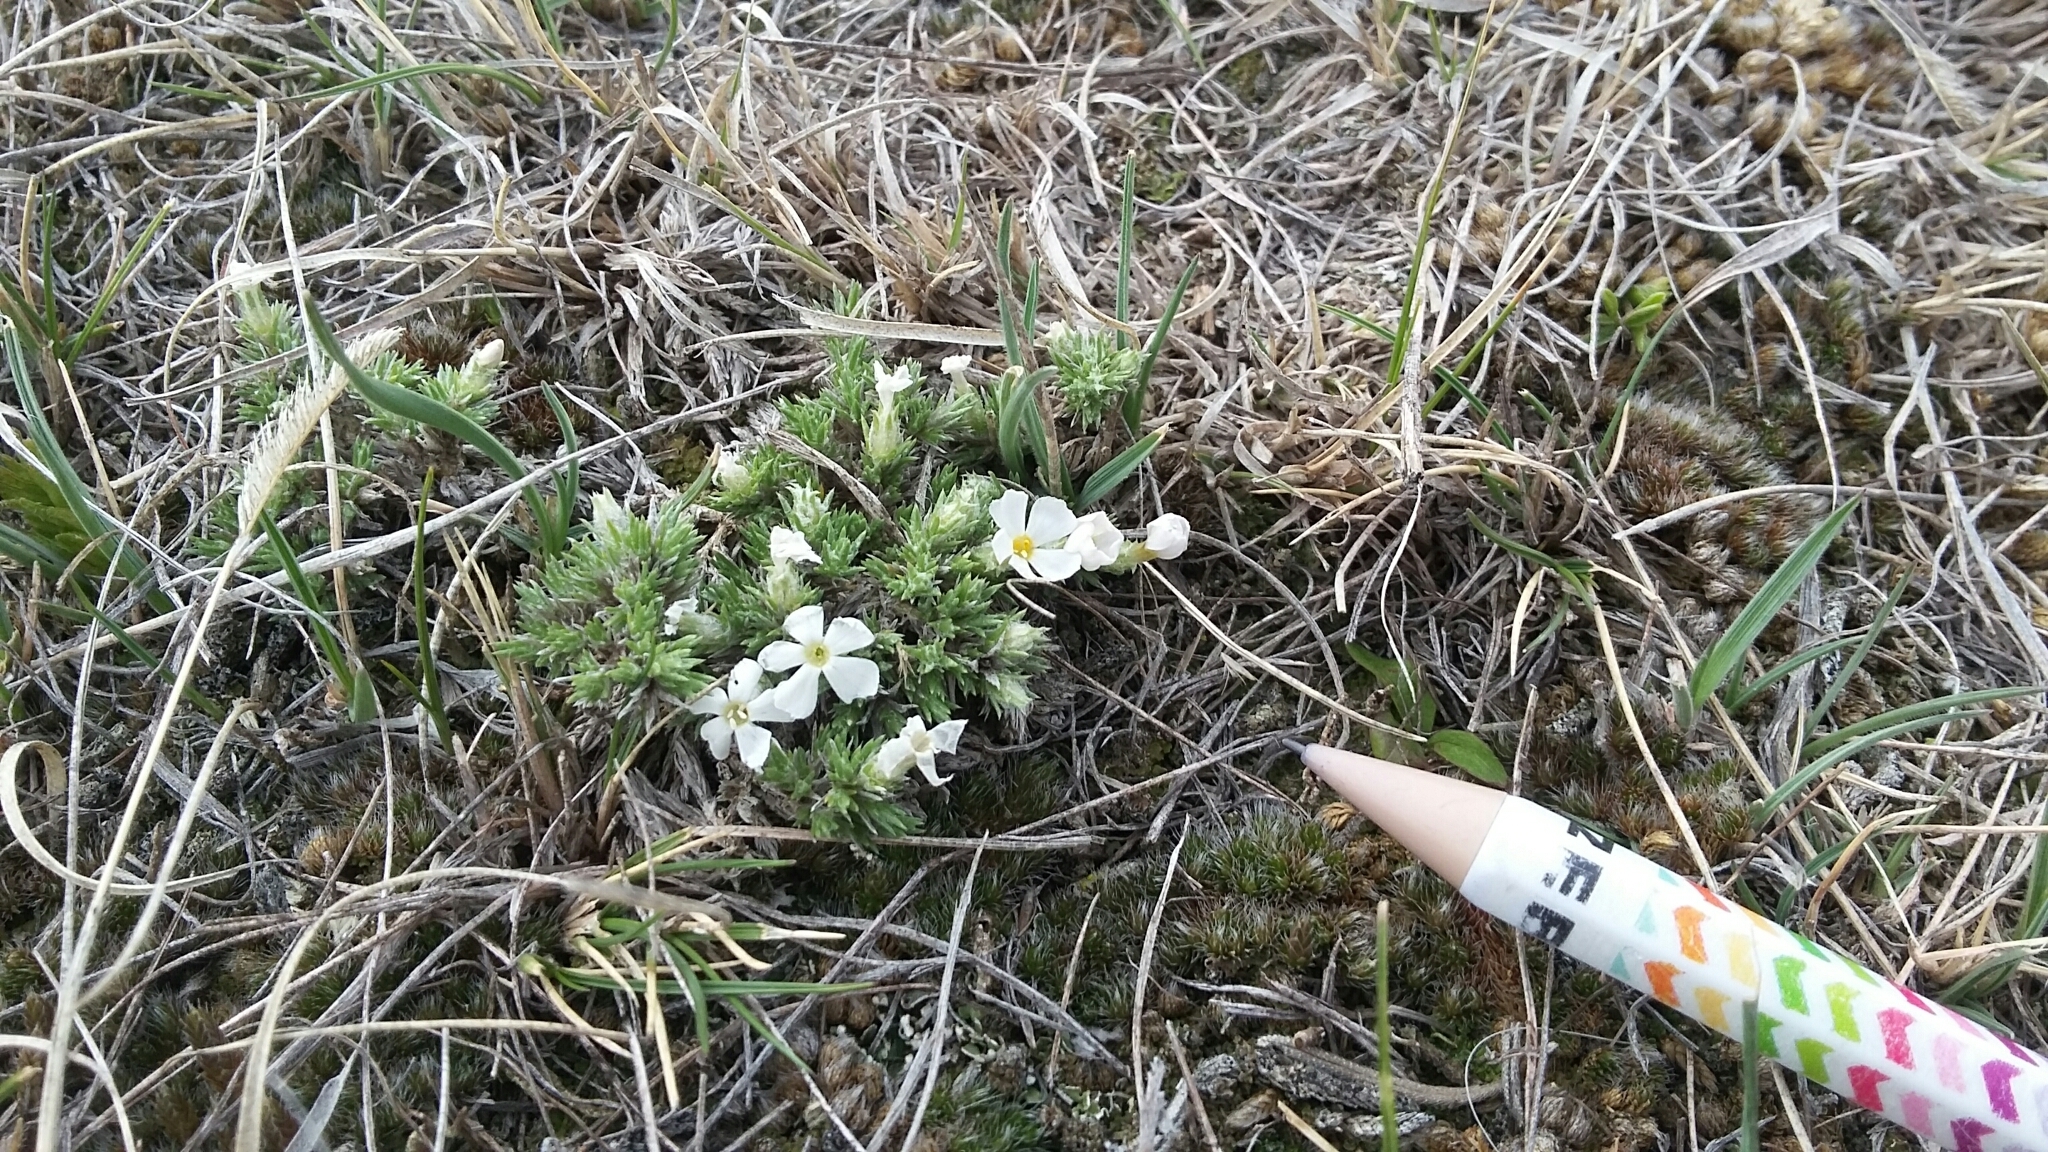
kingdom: Plantae
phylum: Tracheophyta
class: Magnoliopsida
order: Ericales
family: Polemoniaceae
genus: Phlox
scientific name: Phlox hoodii
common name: Moss phlox
